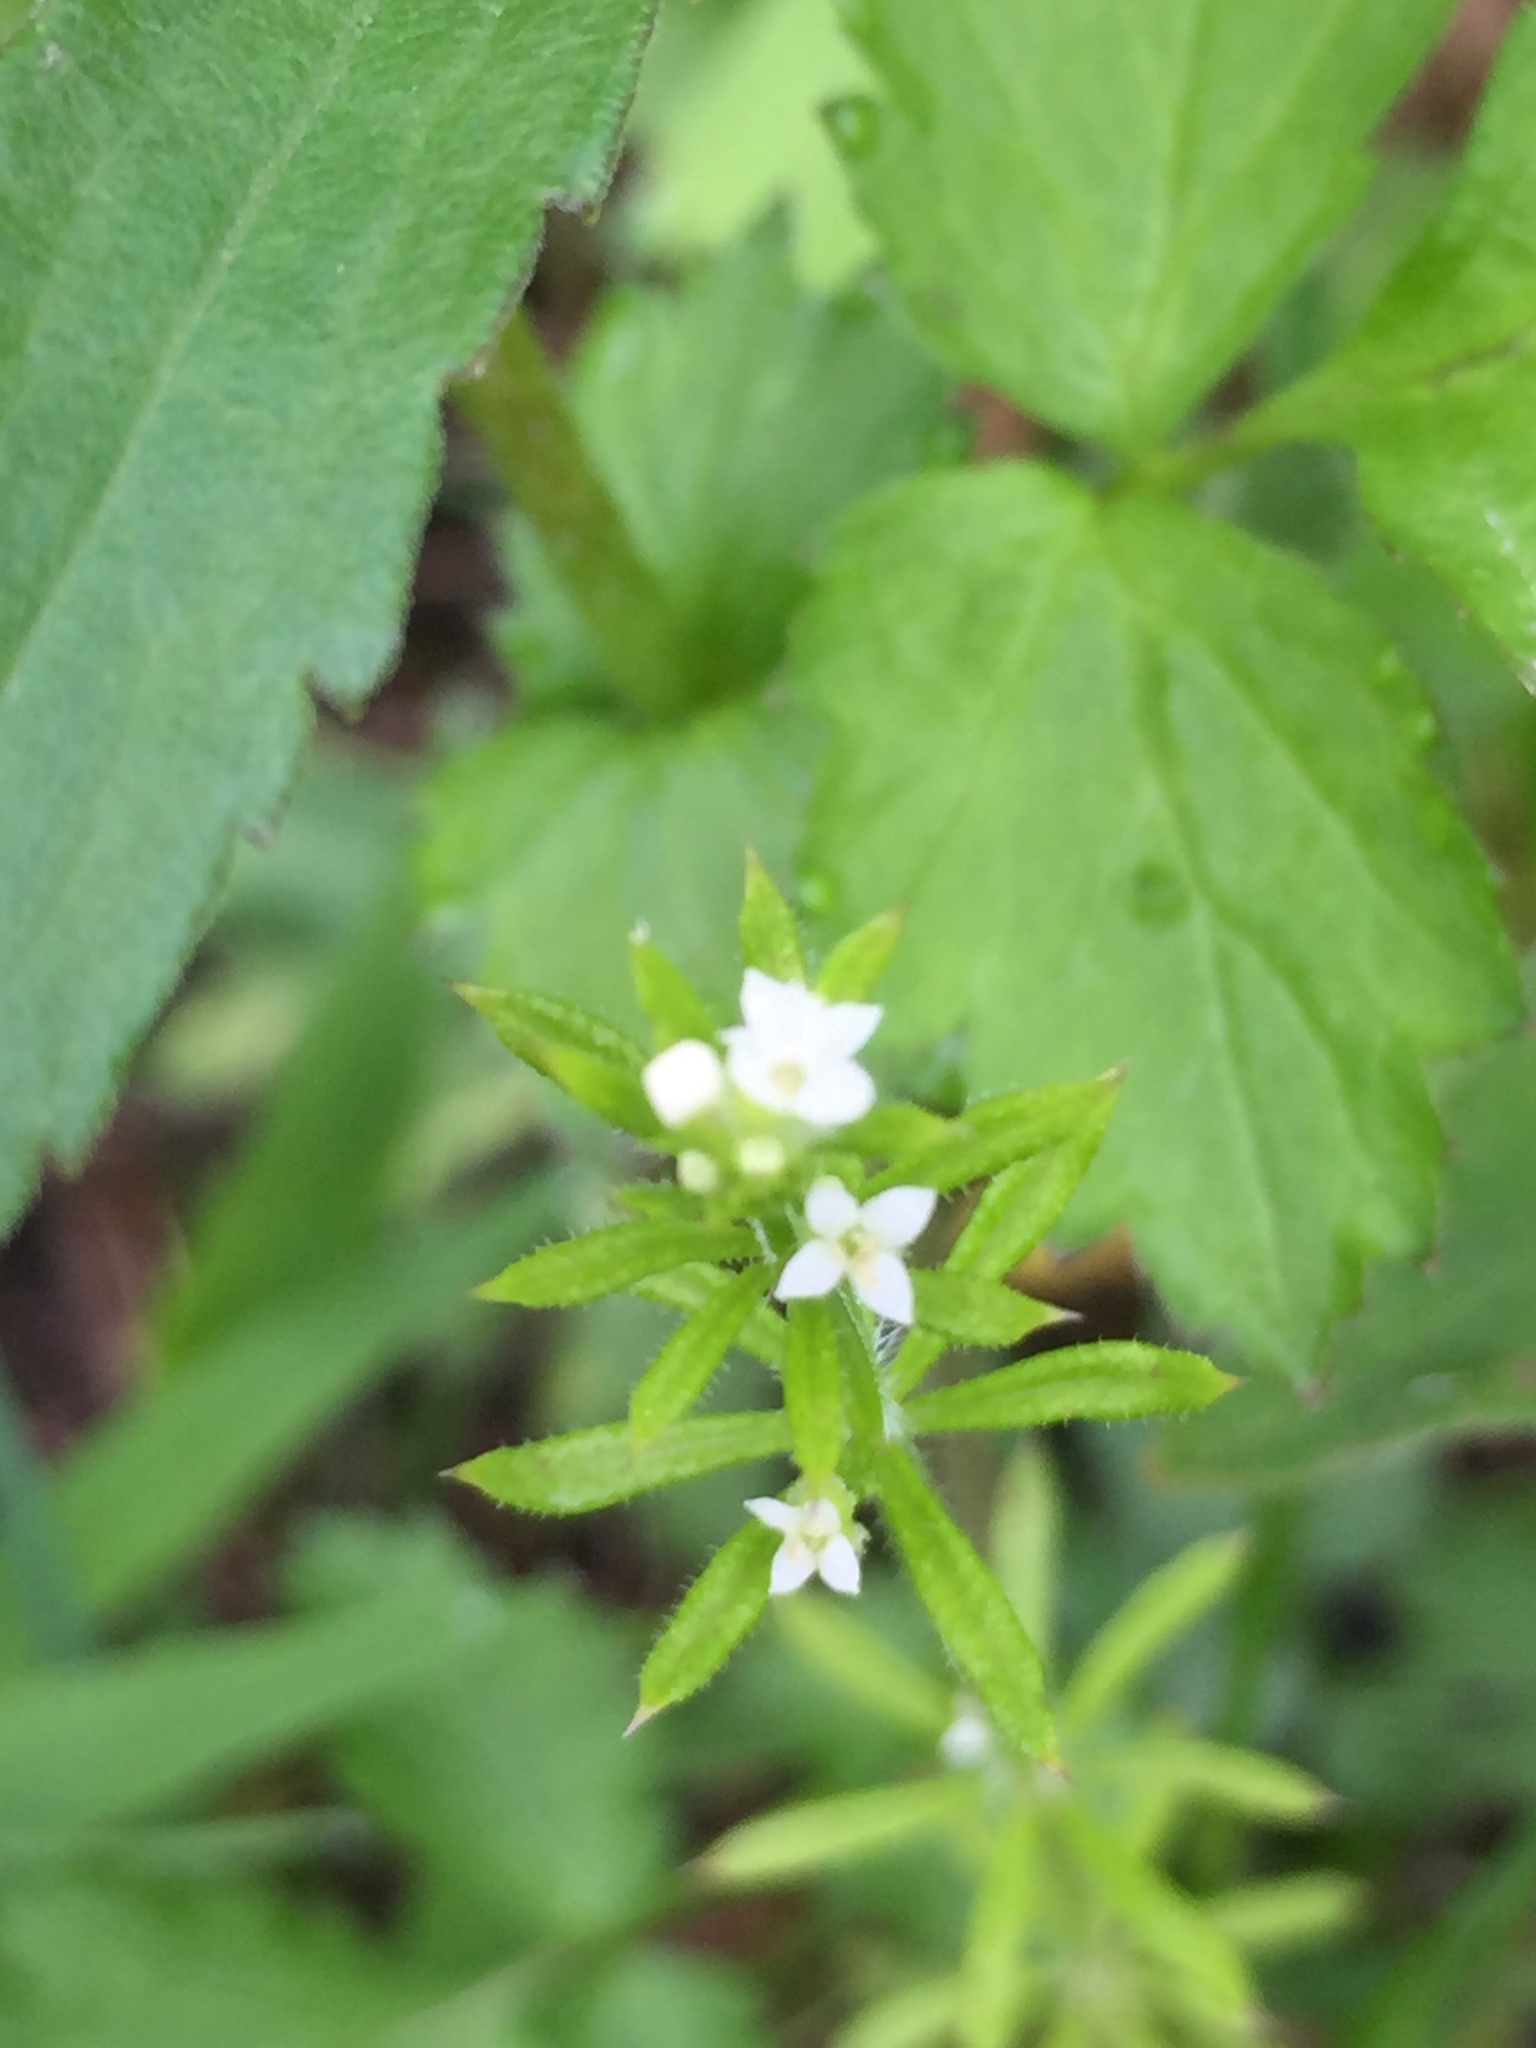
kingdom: Plantae
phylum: Tracheophyta
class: Magnoliopsida
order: Gentianales
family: Rubiaceae
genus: Galium
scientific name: Galium aparine
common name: Cleavers
